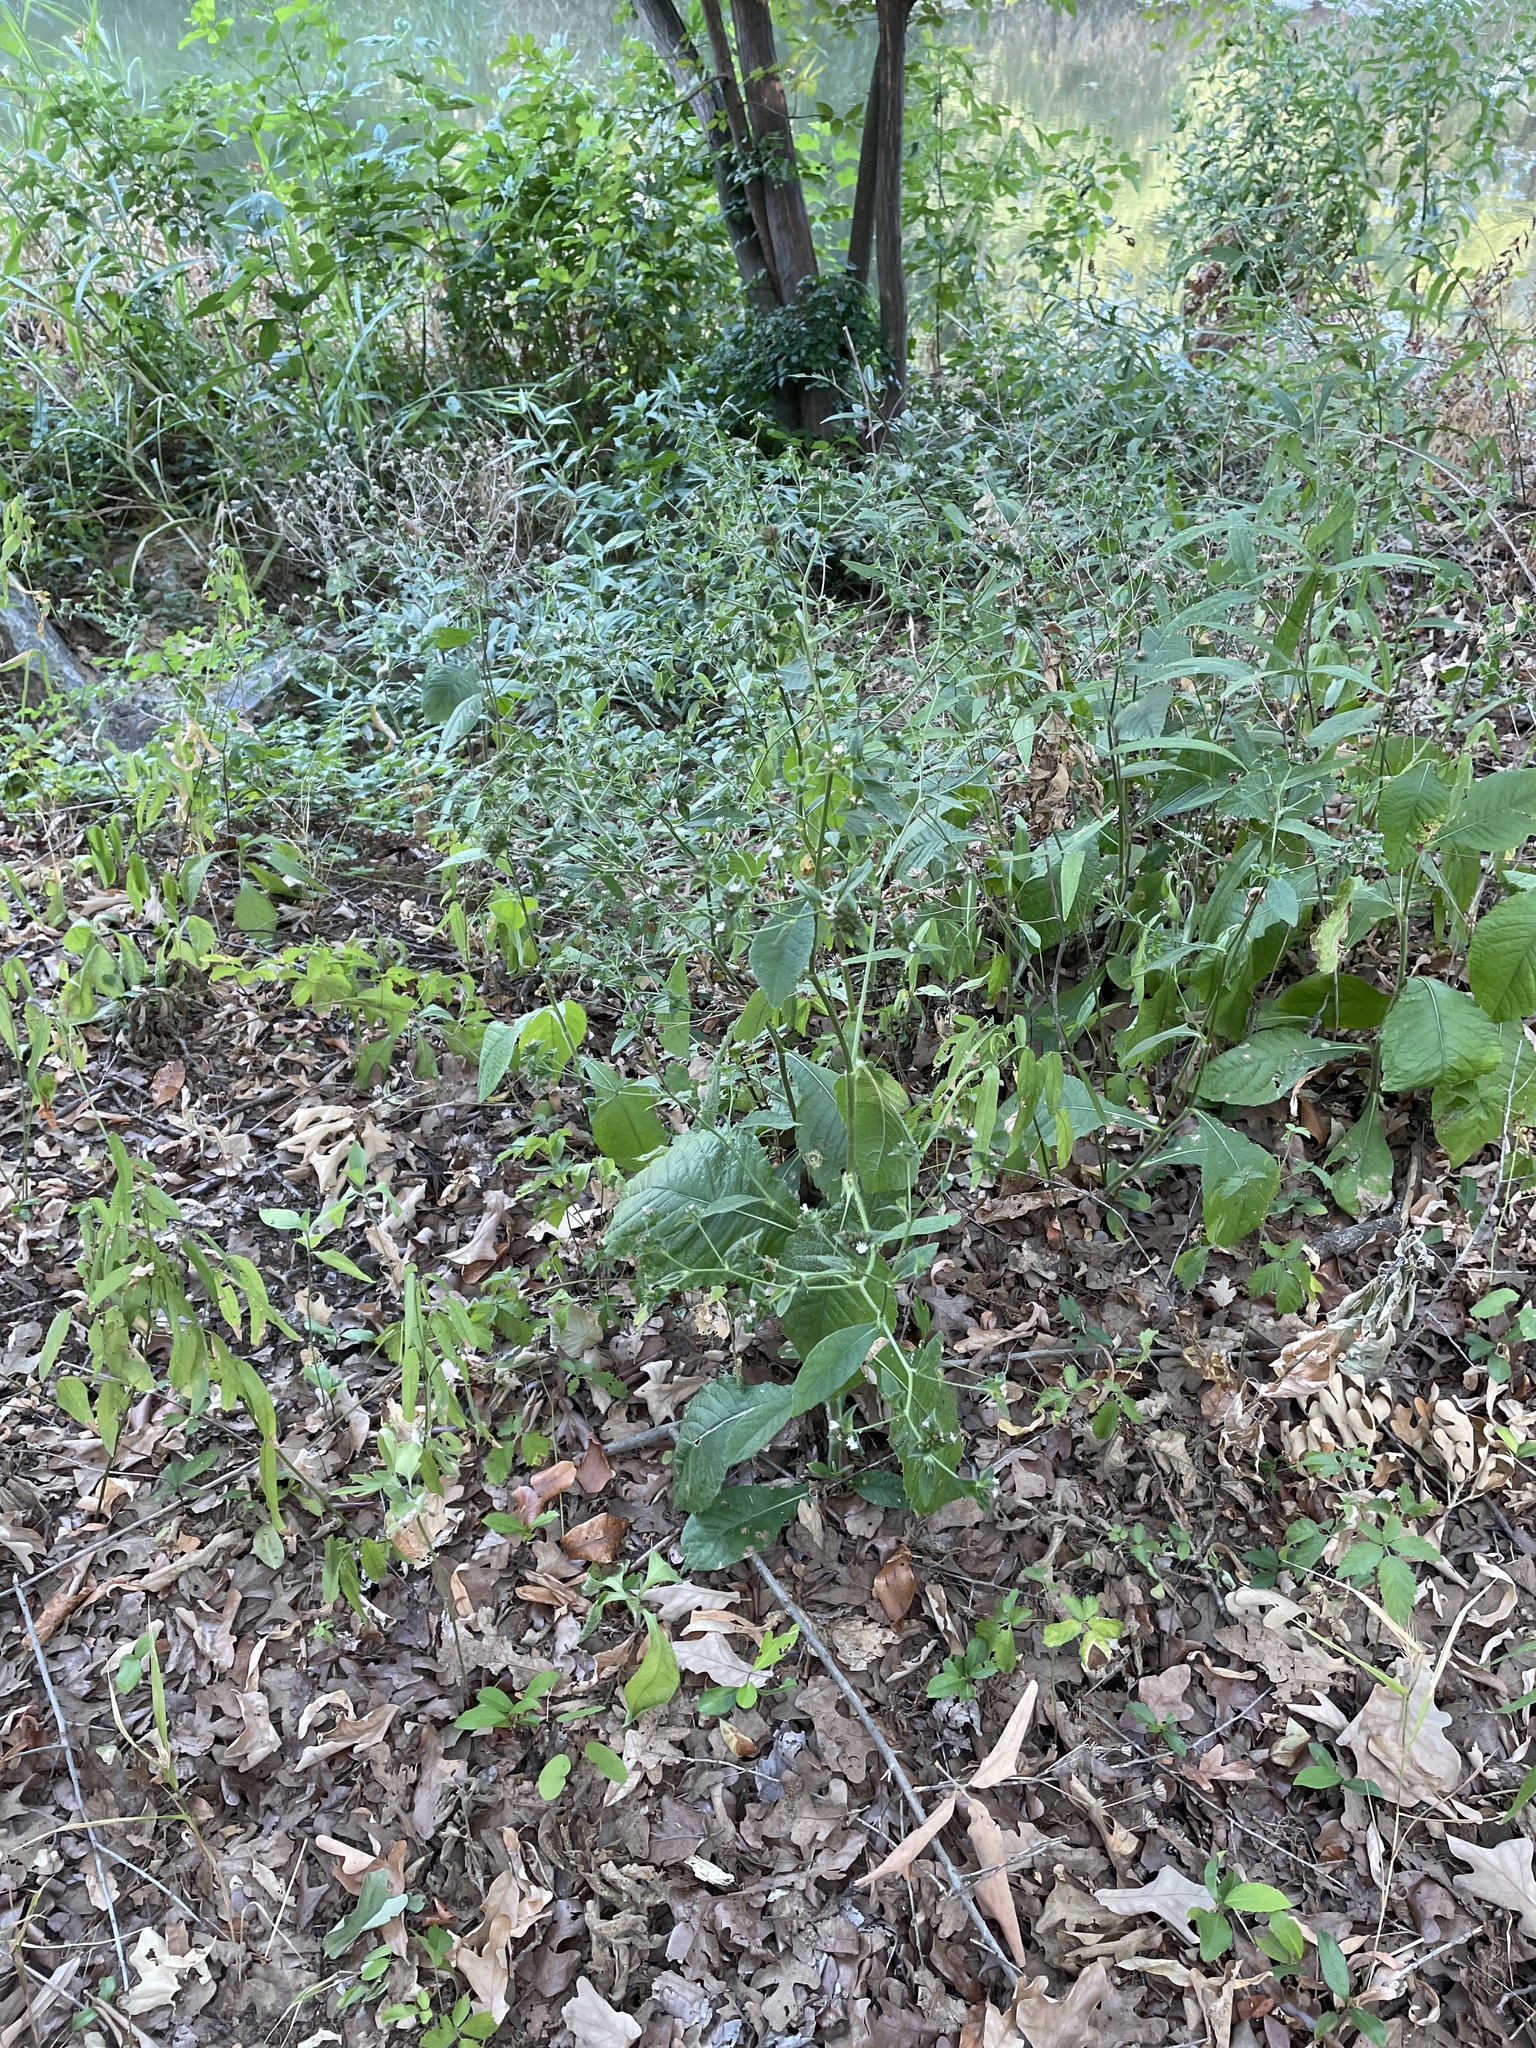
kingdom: Plantae
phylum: Tracheophyta
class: Magnoliopsida
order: Asterales
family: Asteraceae
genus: Elephantopus
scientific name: Elephantopus carolinianus
